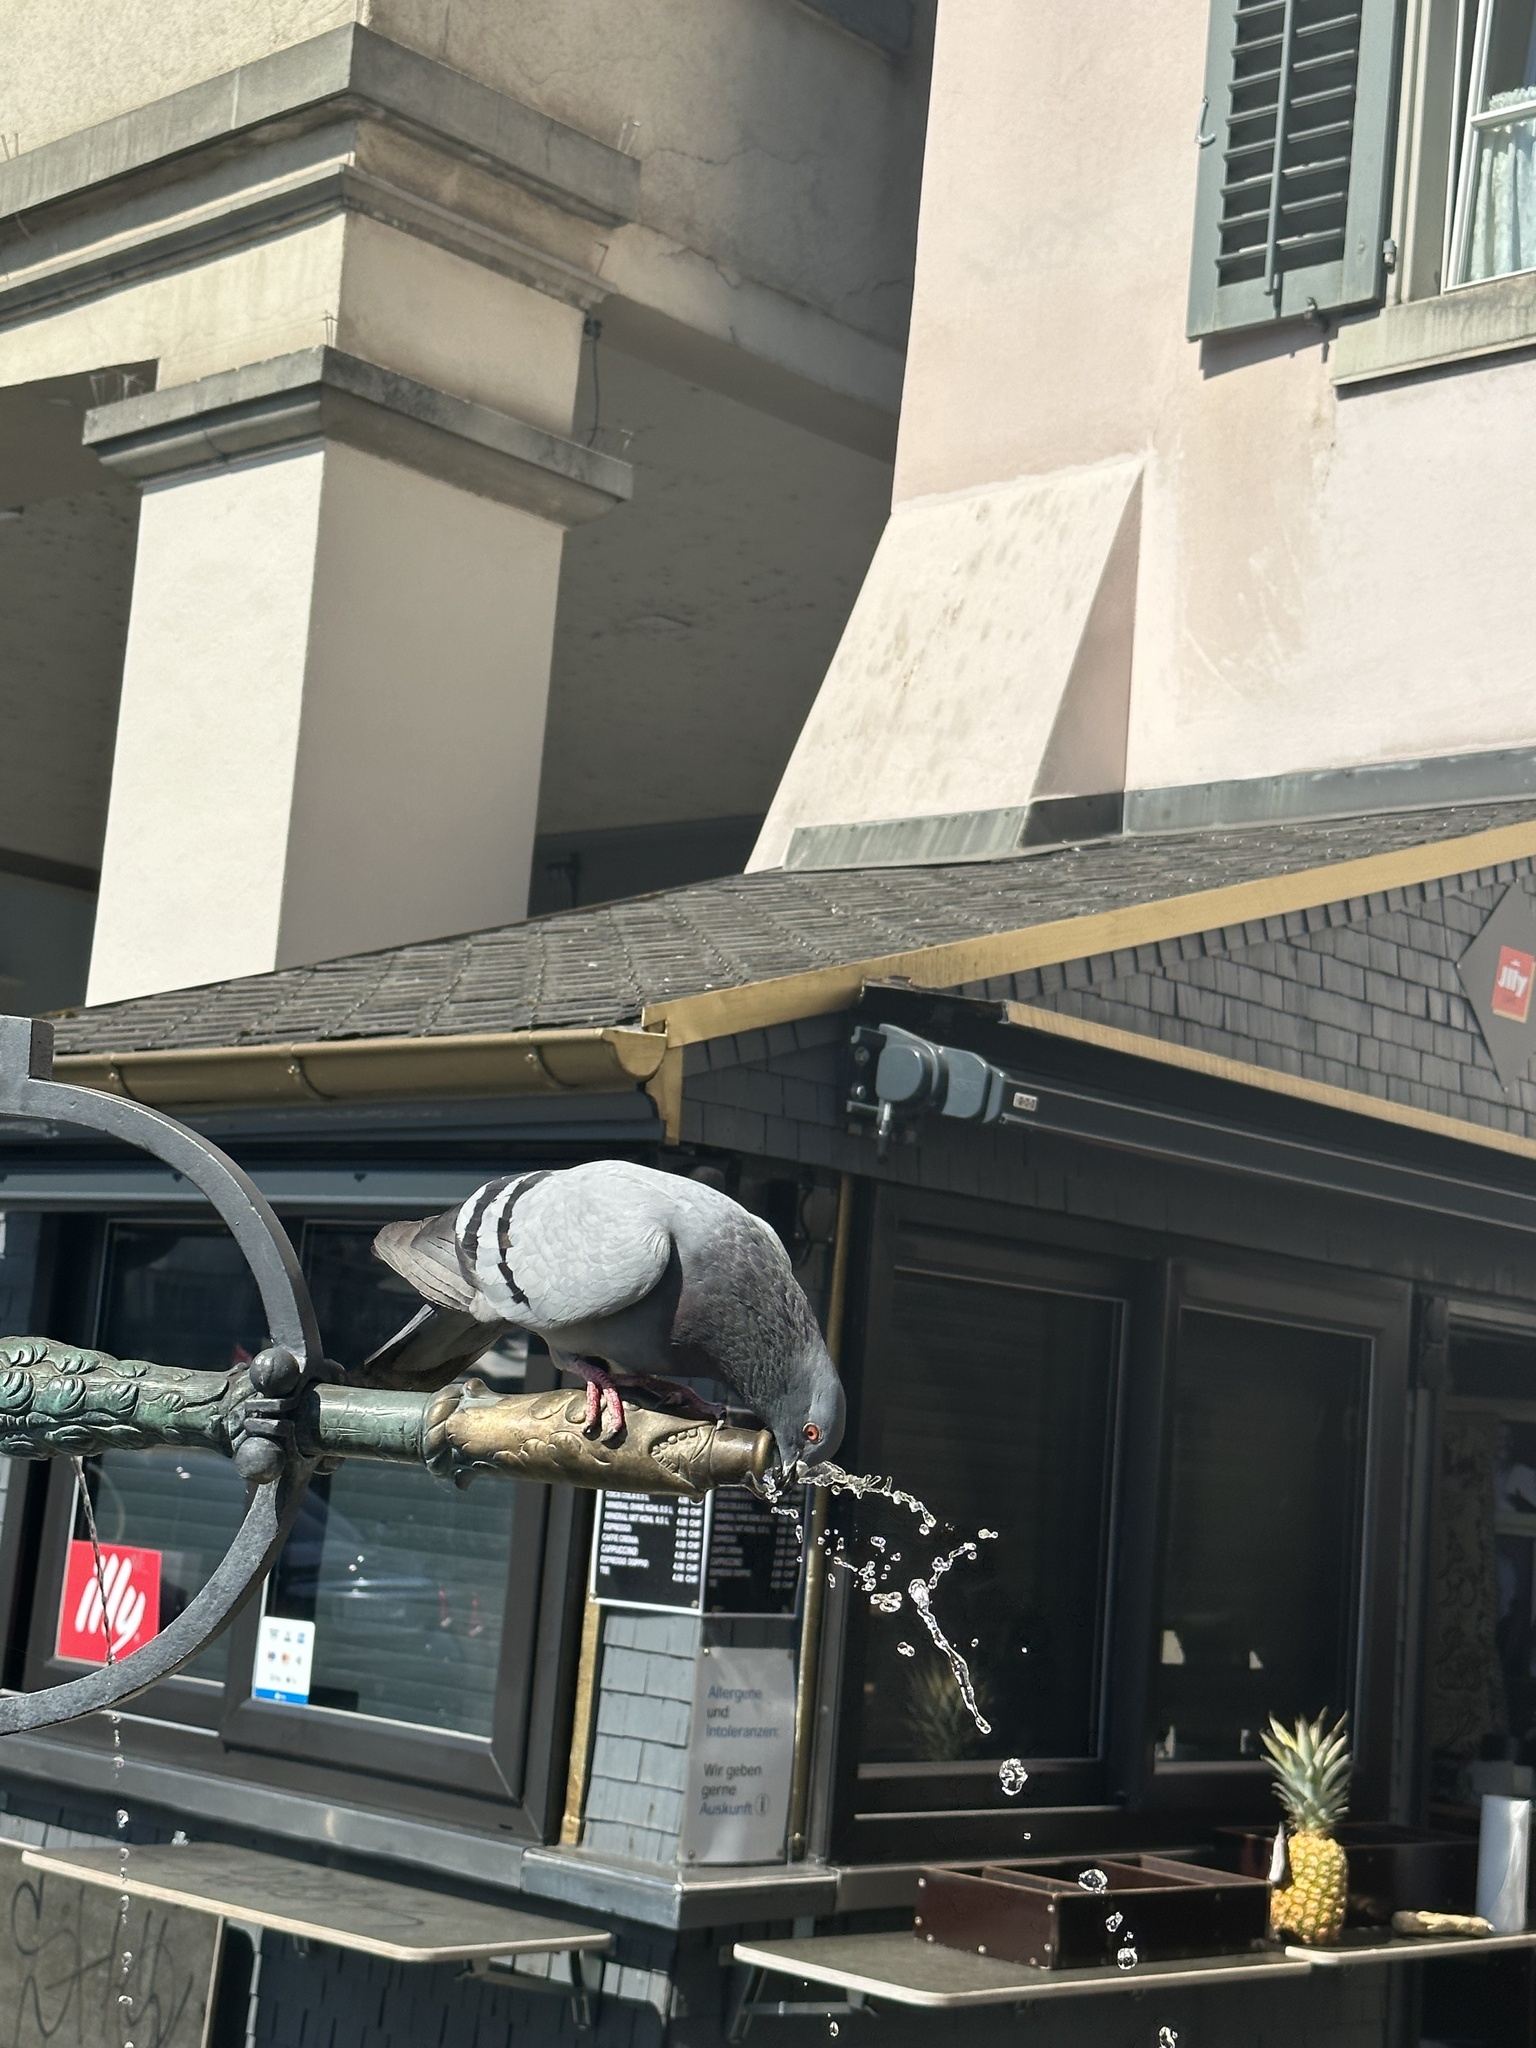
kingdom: Animalia
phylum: Chordata
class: Aves
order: Columbiformes
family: Columbidae
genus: Columba
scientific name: Columba livia
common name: Rock pigeon
